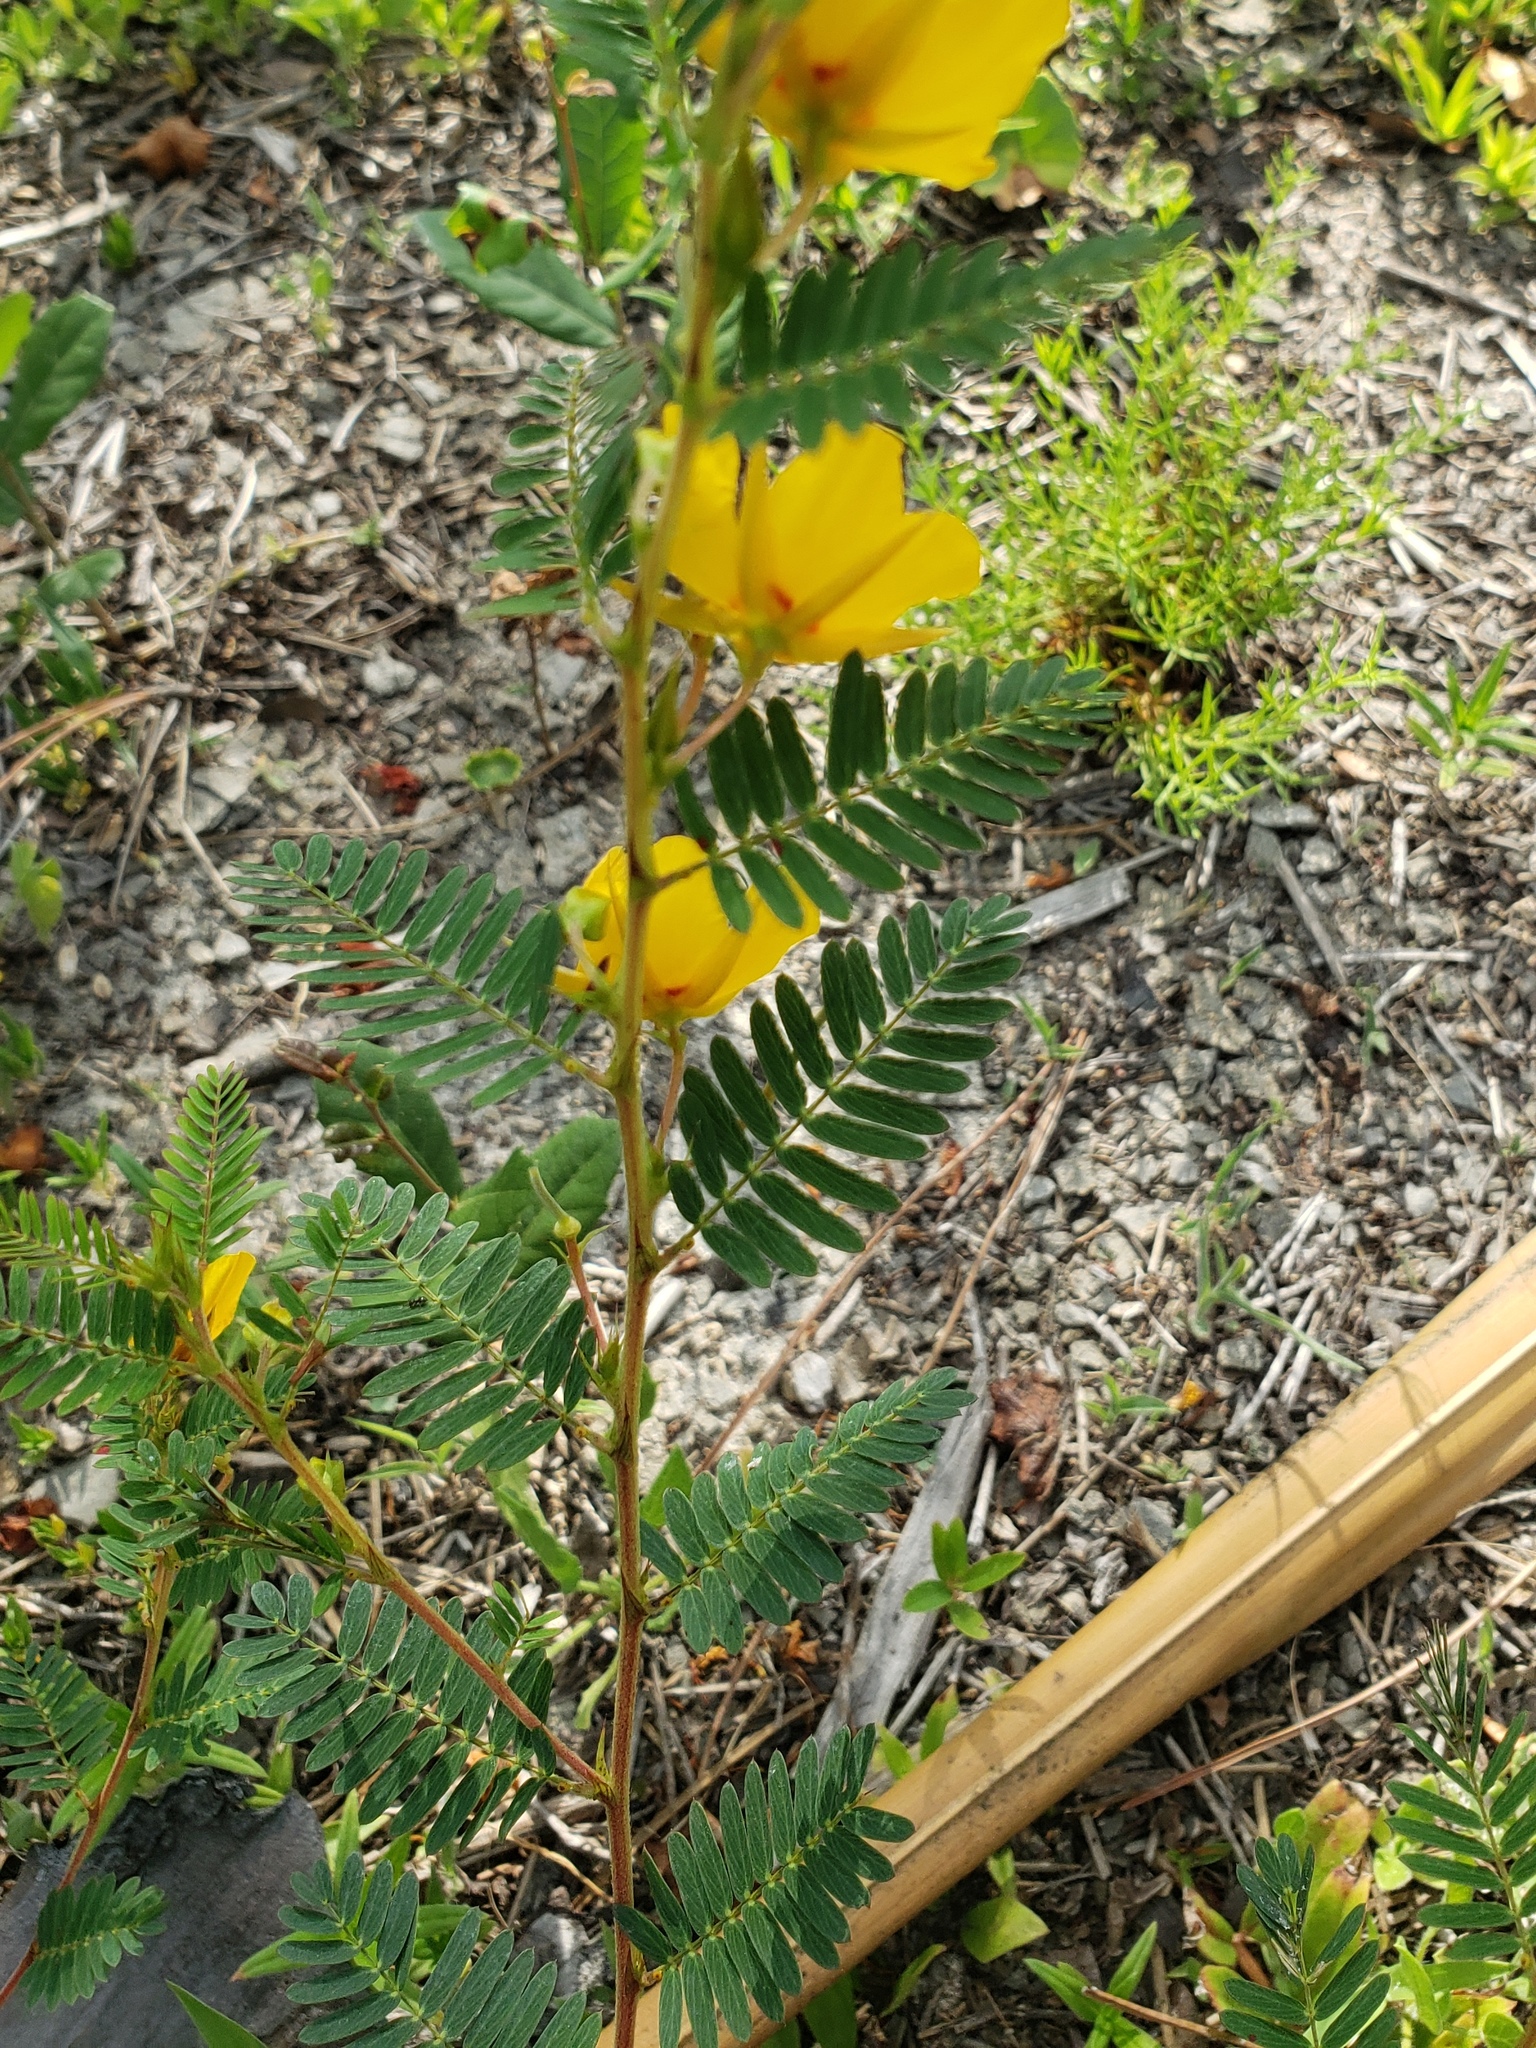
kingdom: Plantae
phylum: Tracheophyta
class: Magnoliopsida
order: Fabales
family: Fabaceae
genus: Chamaecrista
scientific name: Chamaecrista fasciculata
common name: Golden cassia
